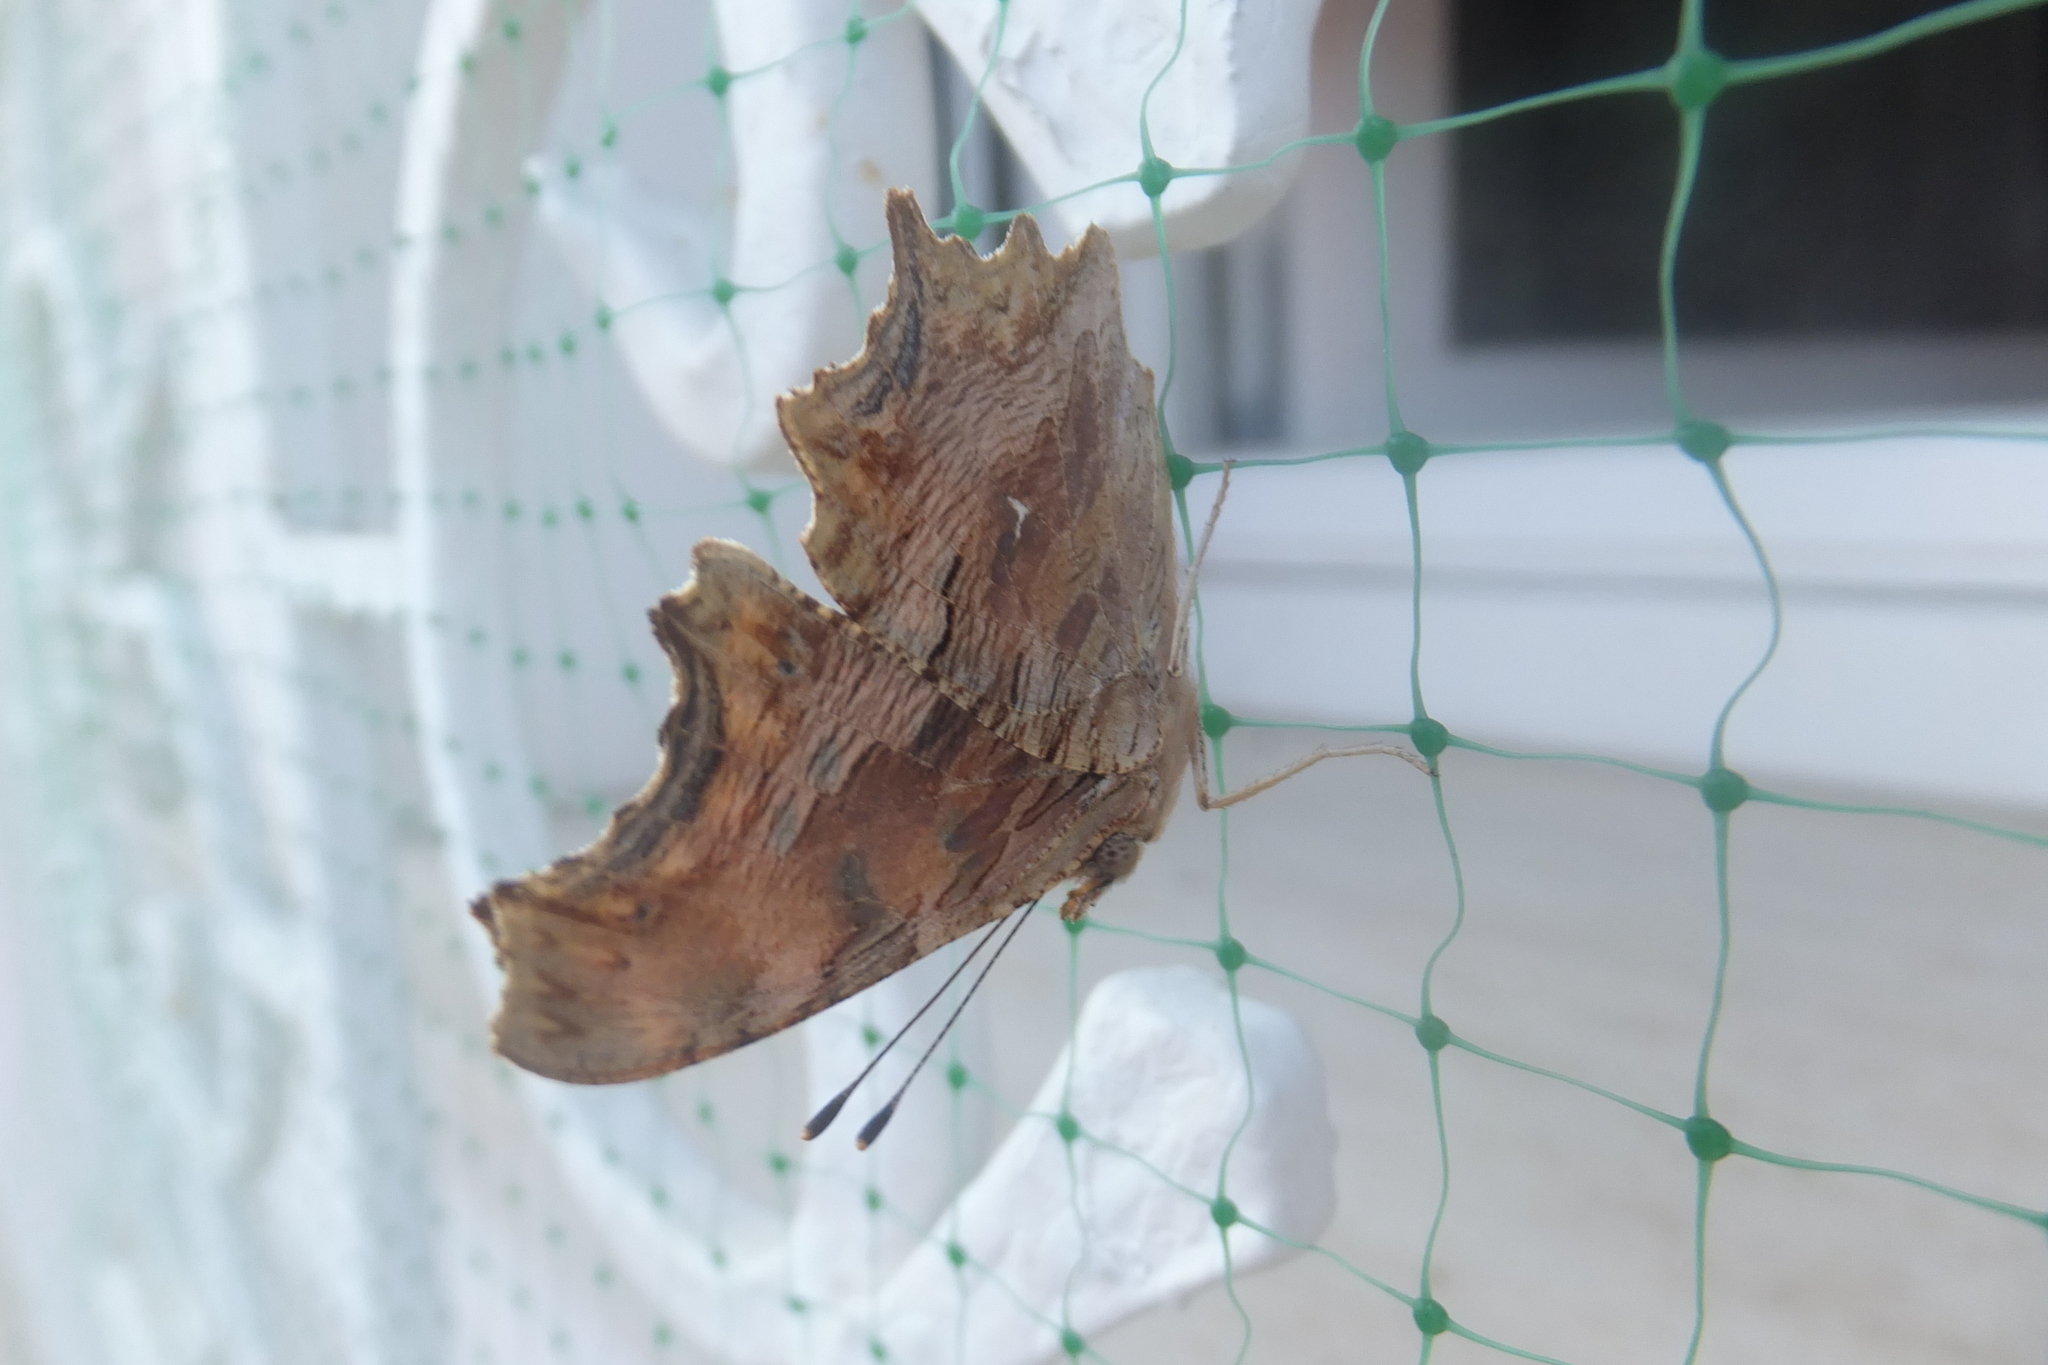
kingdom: Animalia
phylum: Arthropoda
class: Insecta
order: Lepidoptera
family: Nymphalidae
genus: Polygonia
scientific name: Polygonia egea
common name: Southern comma
